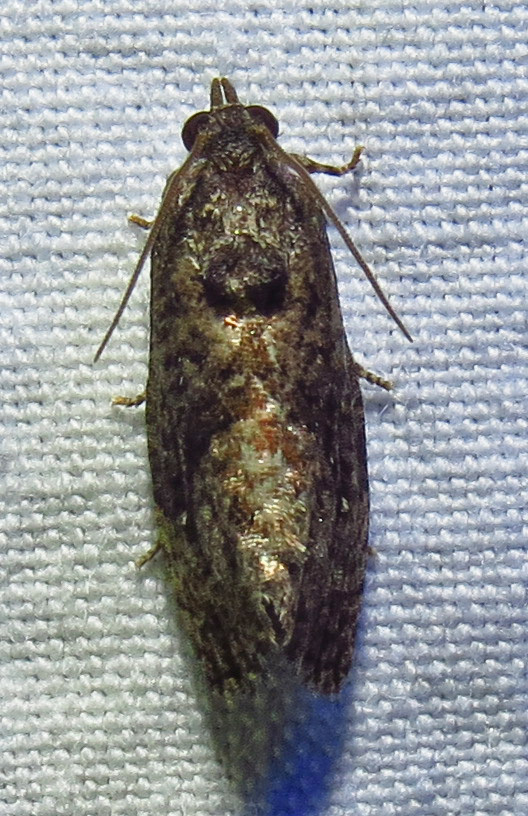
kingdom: Animalia
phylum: Arthropoda
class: Insecta
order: Lepidoptera
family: Tortricidae
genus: Gymnandrosoma
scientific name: Gymnandrosoma punctidiscanum
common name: Dotted ecdytolopha moth
